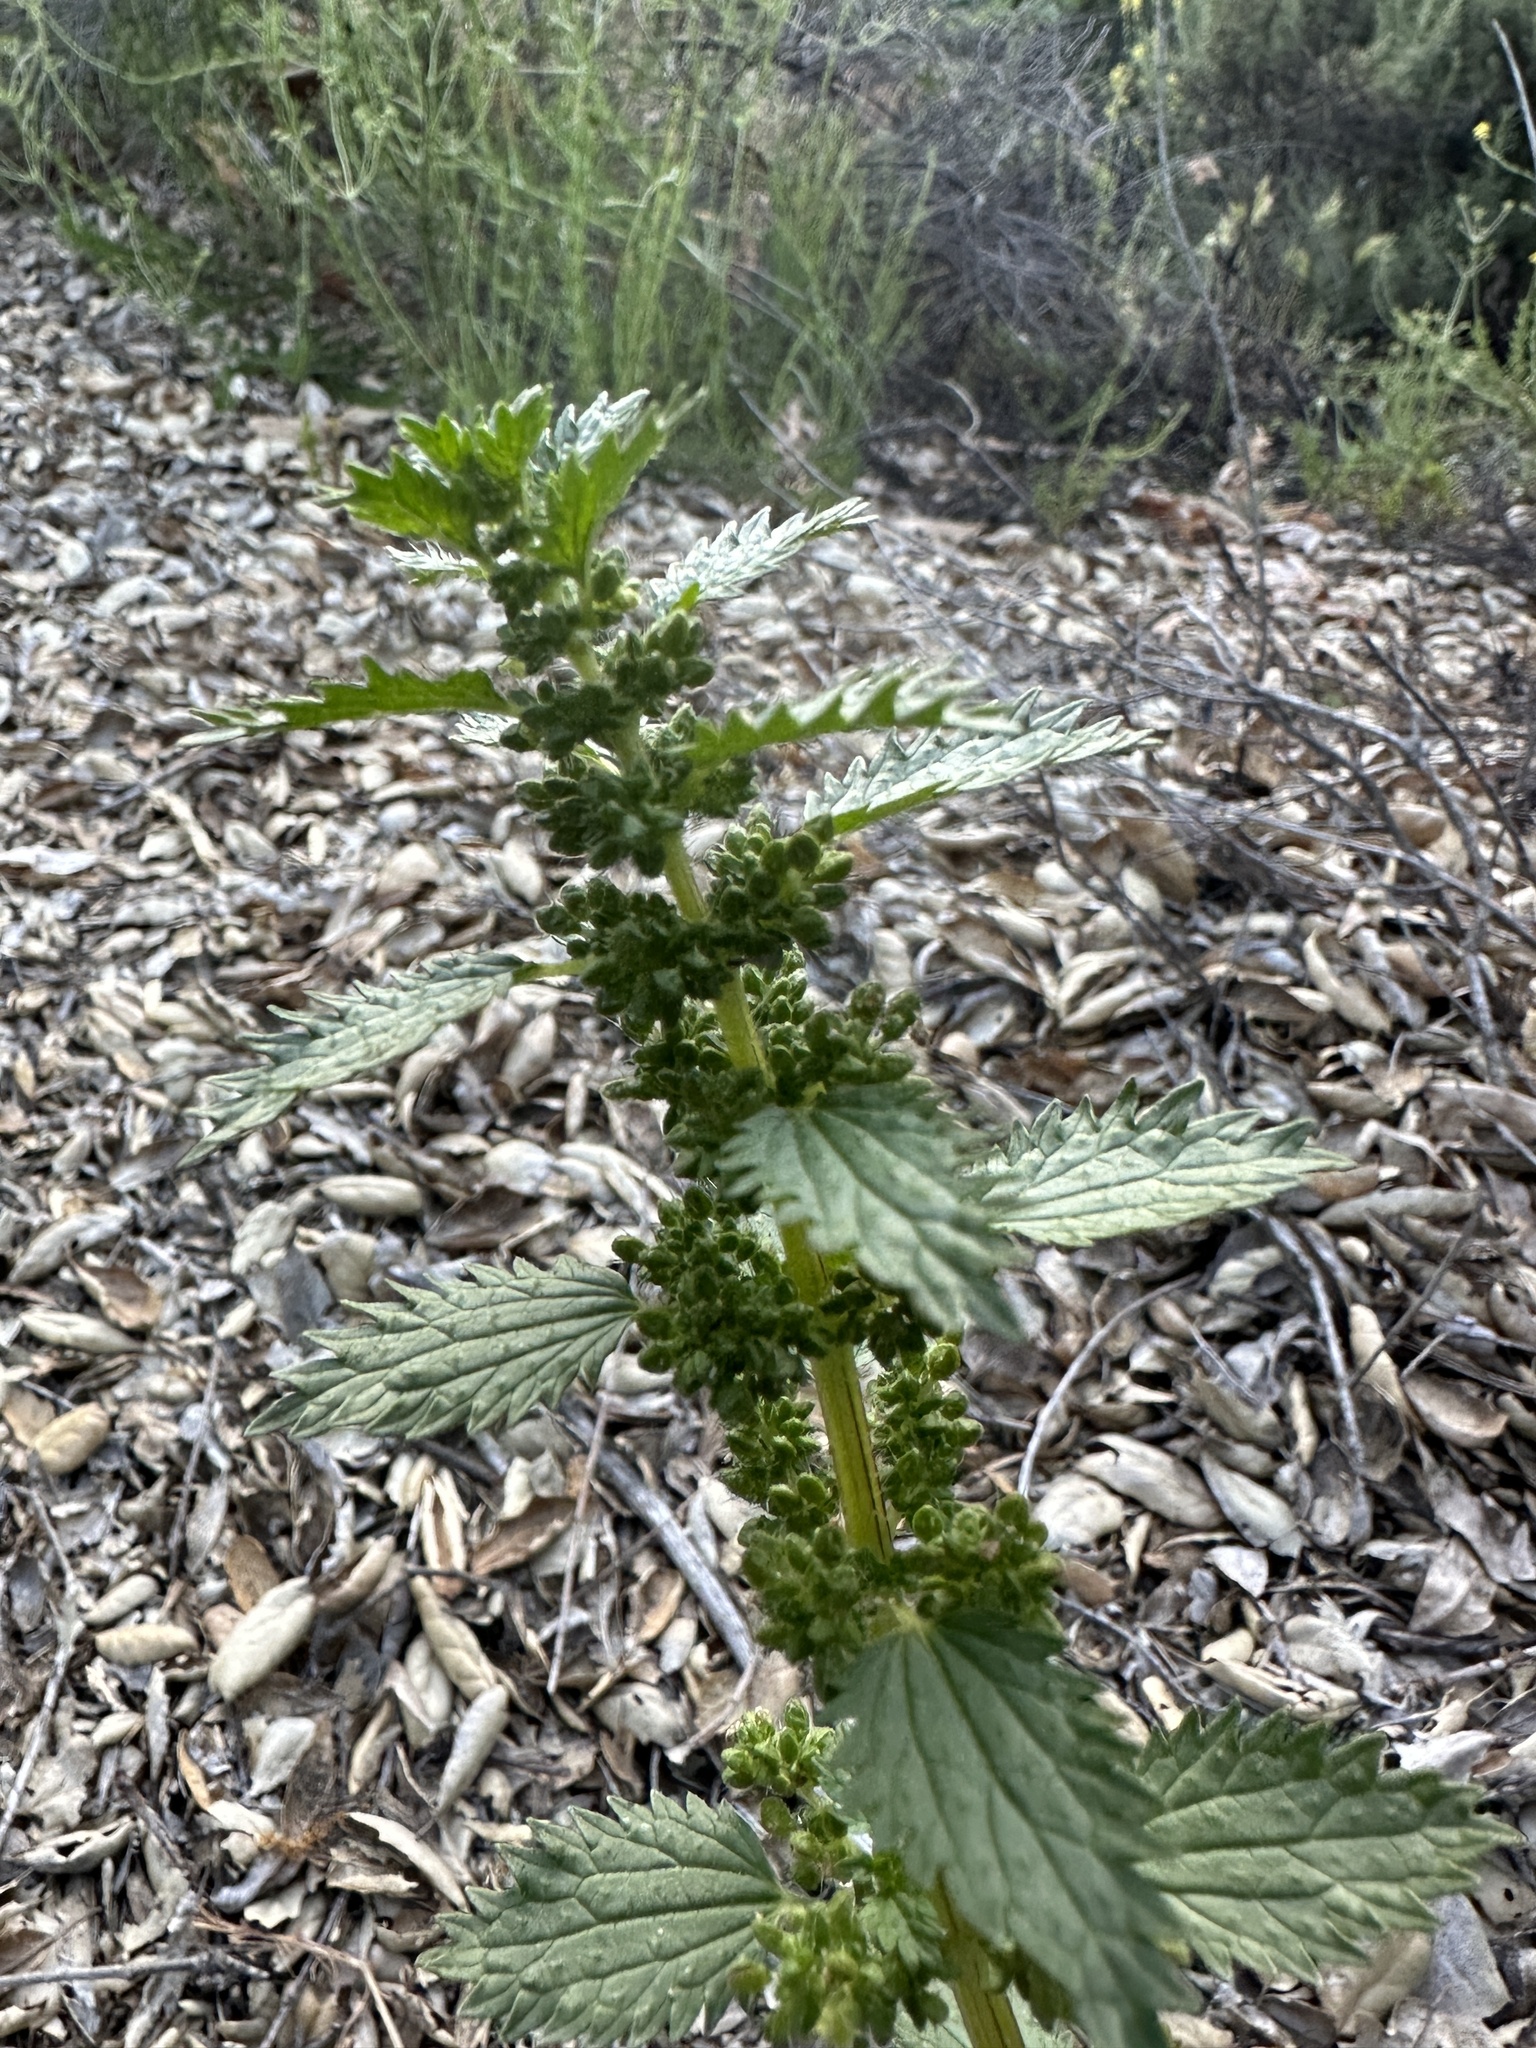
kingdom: Plantae
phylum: Tracheophyta
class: Magnoliopsida
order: Rosales
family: Urticaceae
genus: Urtica
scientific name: Urtica urens
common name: Dwarf nettle
